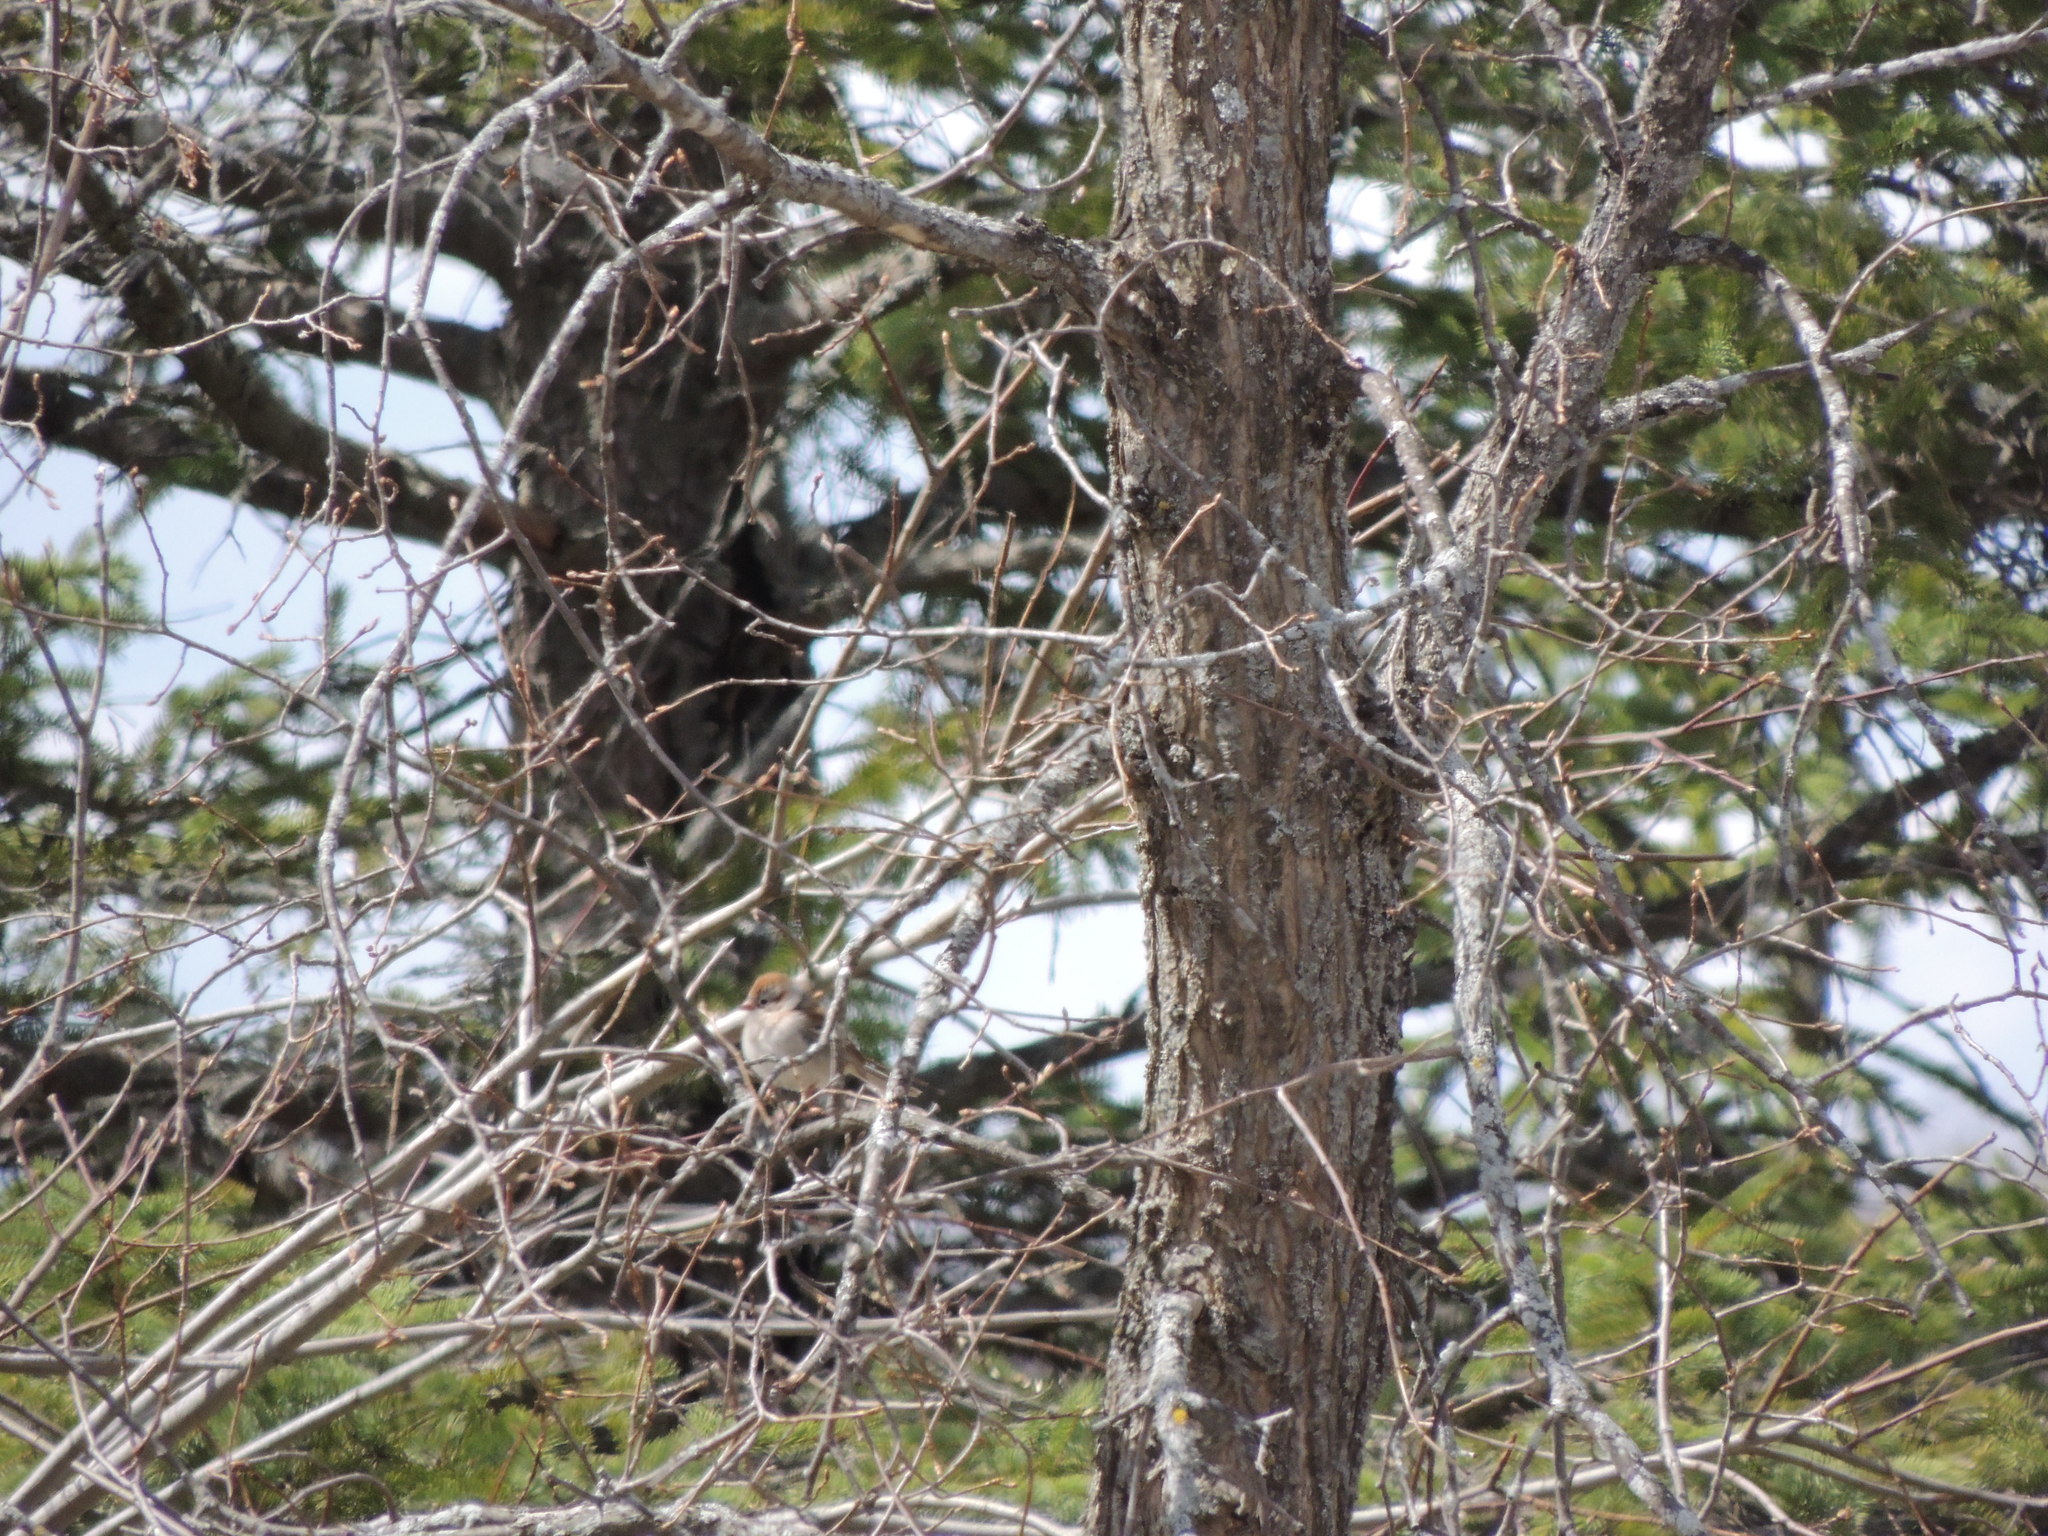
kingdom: Animalia
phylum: Chordata
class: Aves
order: Passeriformes
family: Passerellidae
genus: Spizella
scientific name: Spizella pusilla
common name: Field sparrow
